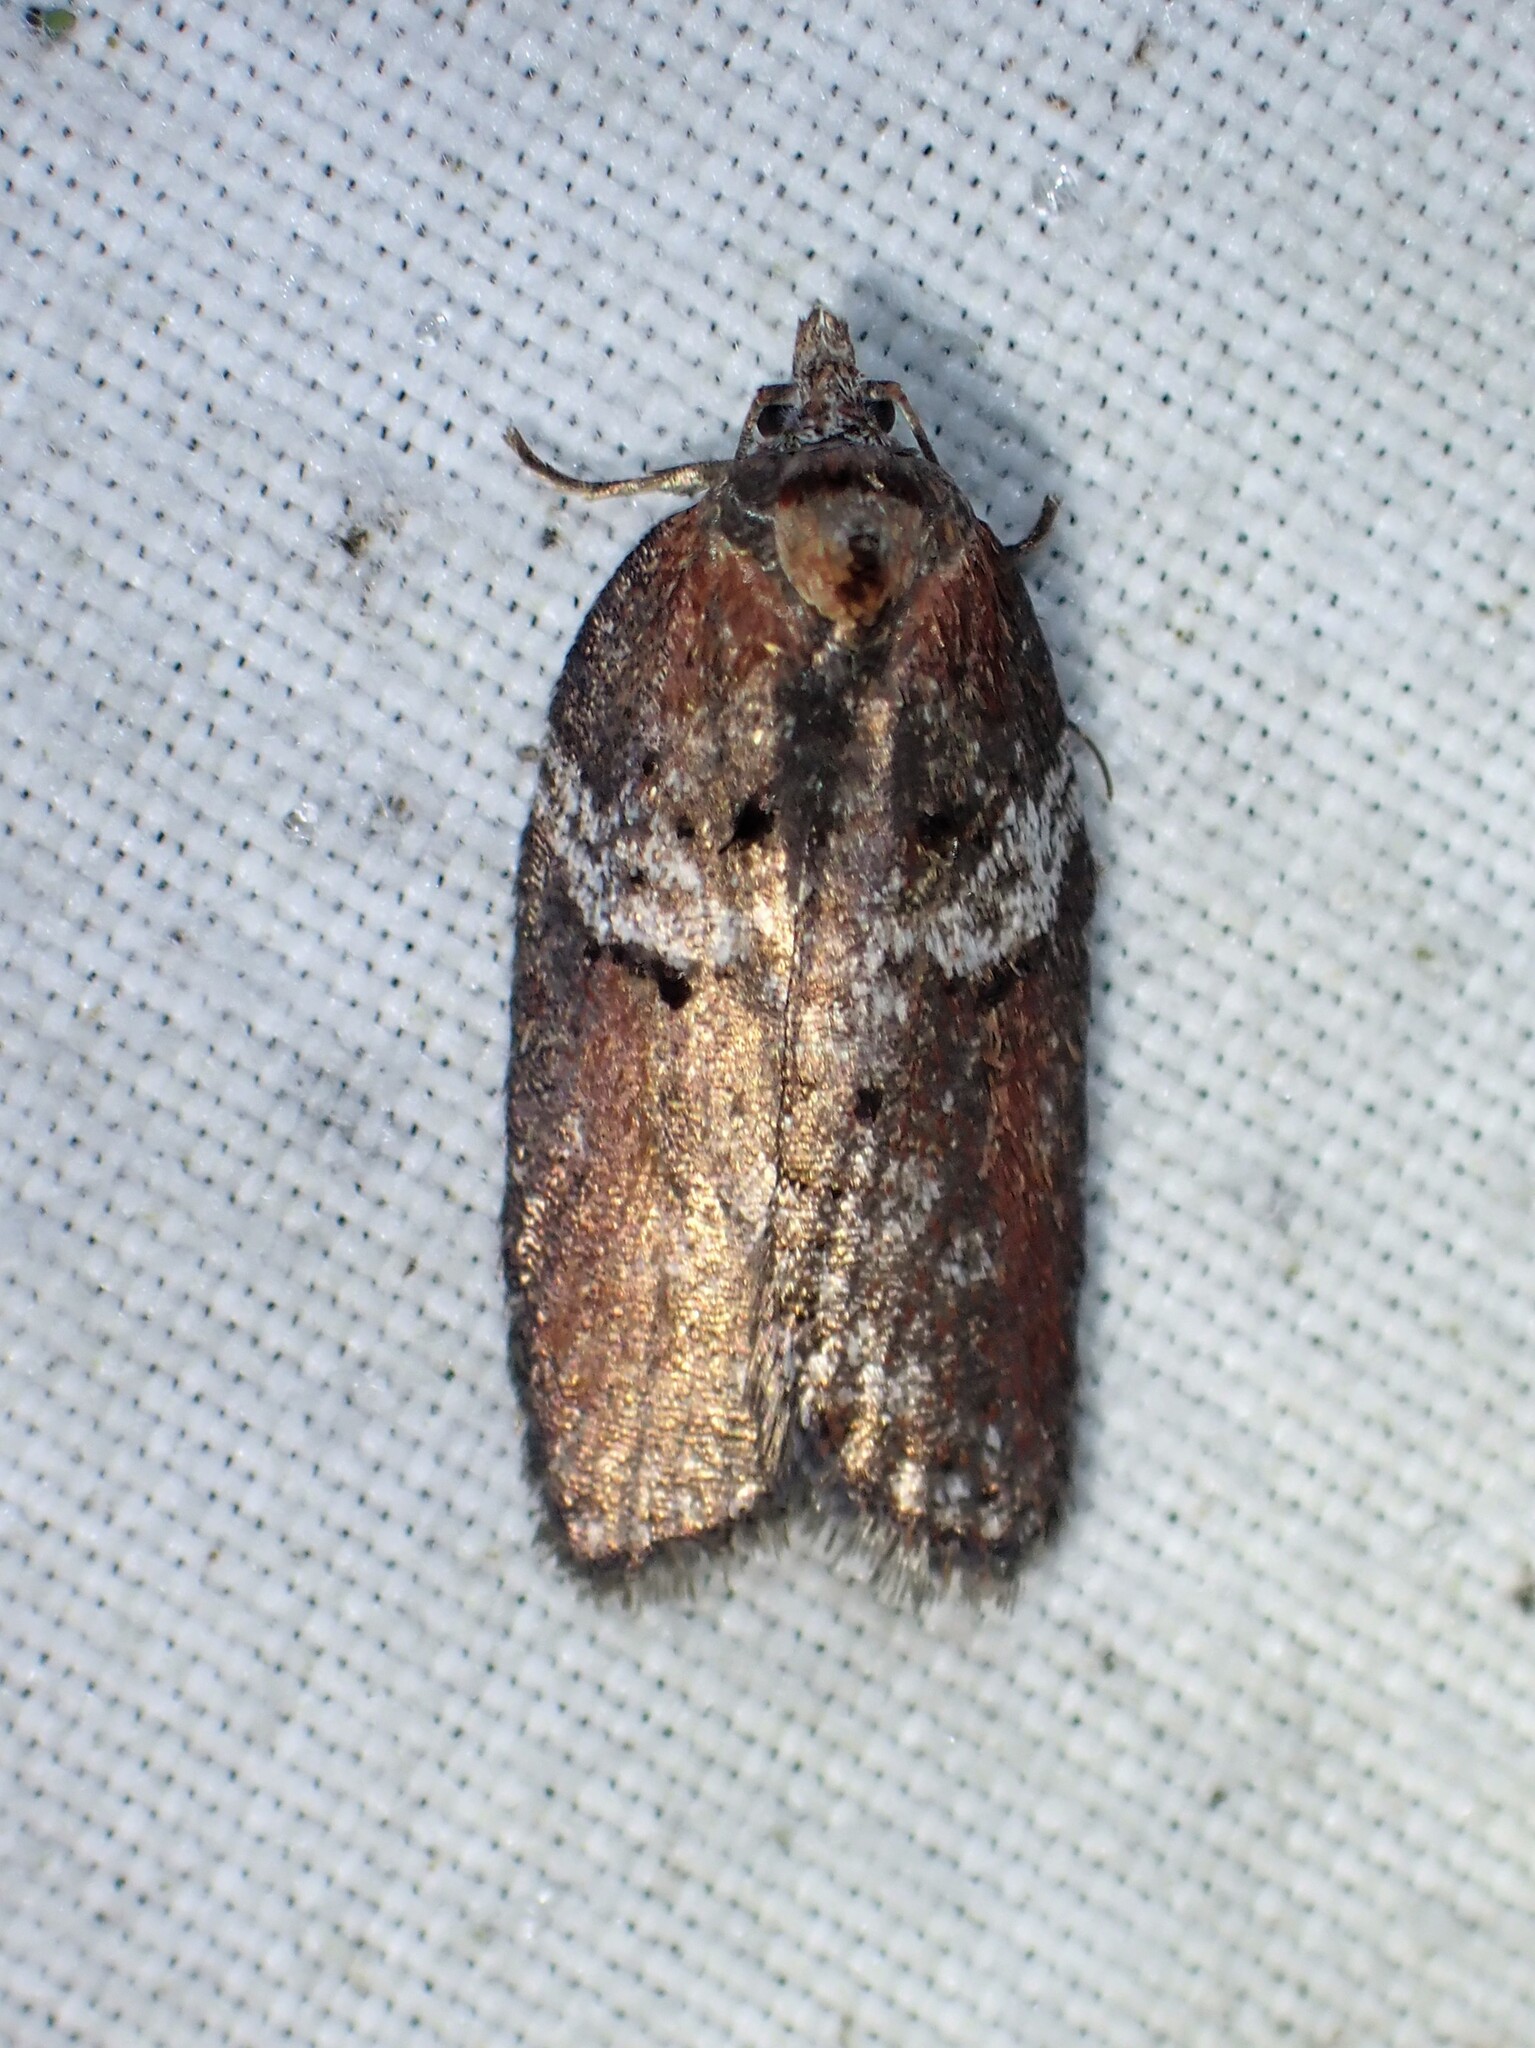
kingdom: Animalia
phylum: Arthropoda
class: Insecta
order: Lepidoptera
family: Tortricidae
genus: Acleris
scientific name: Acleris celiana
